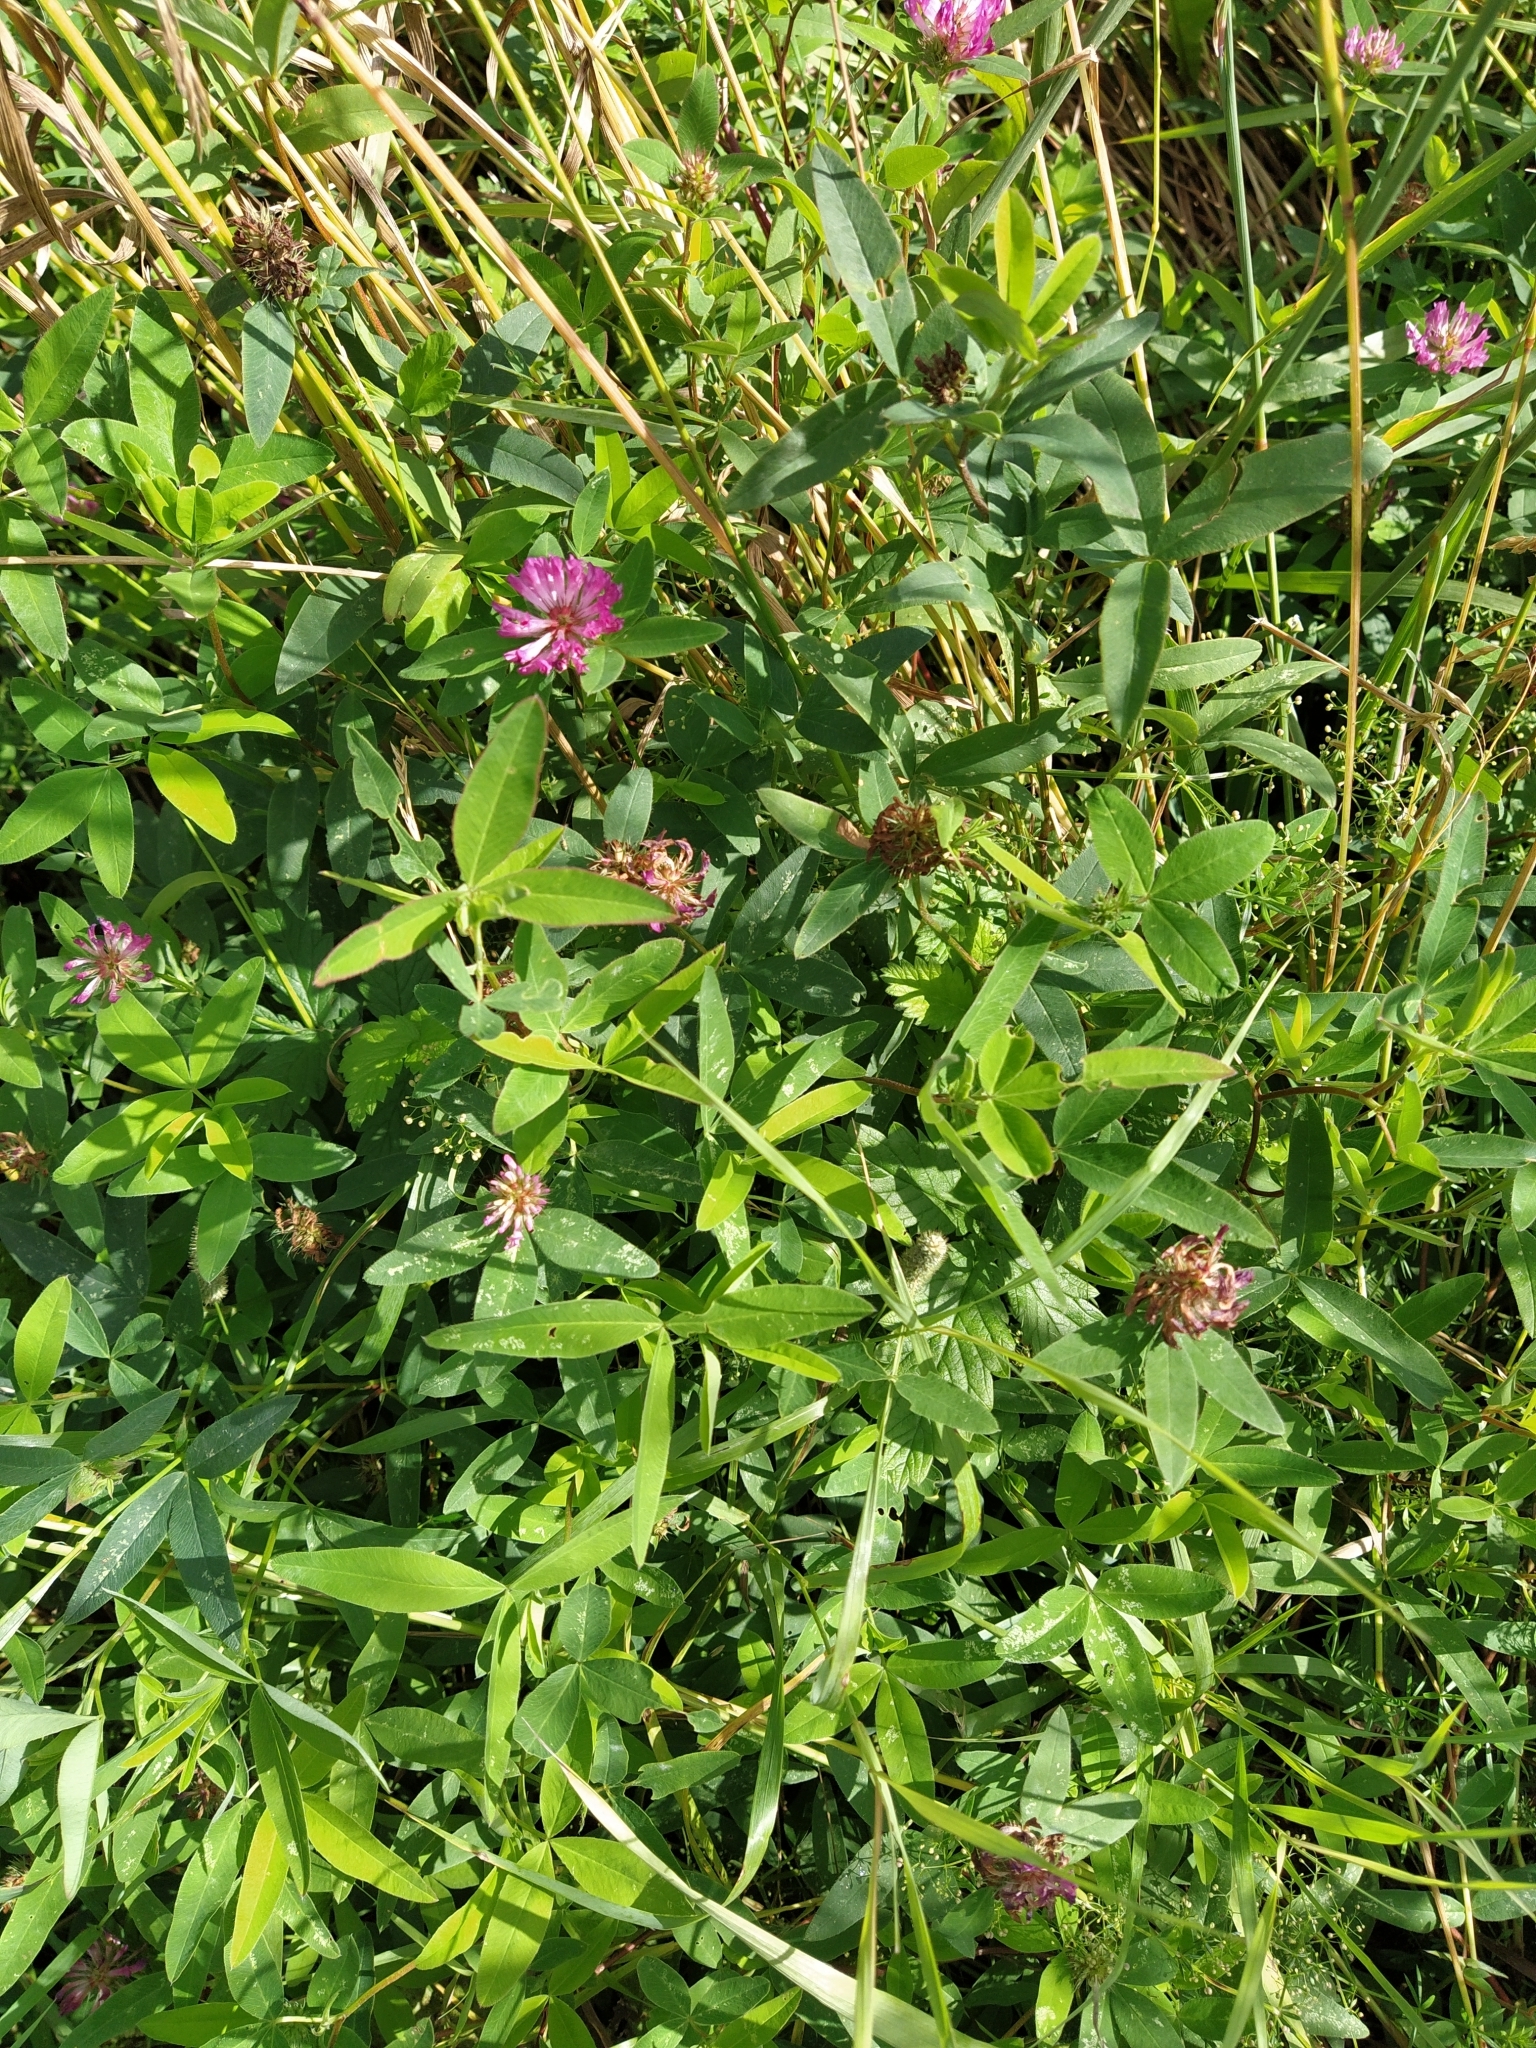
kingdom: Plantae
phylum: Tracheophyta
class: Magnoliopsida
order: Fabales
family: Fabaceae
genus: Trifolium
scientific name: Trifolium medium
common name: Zigzag clover
